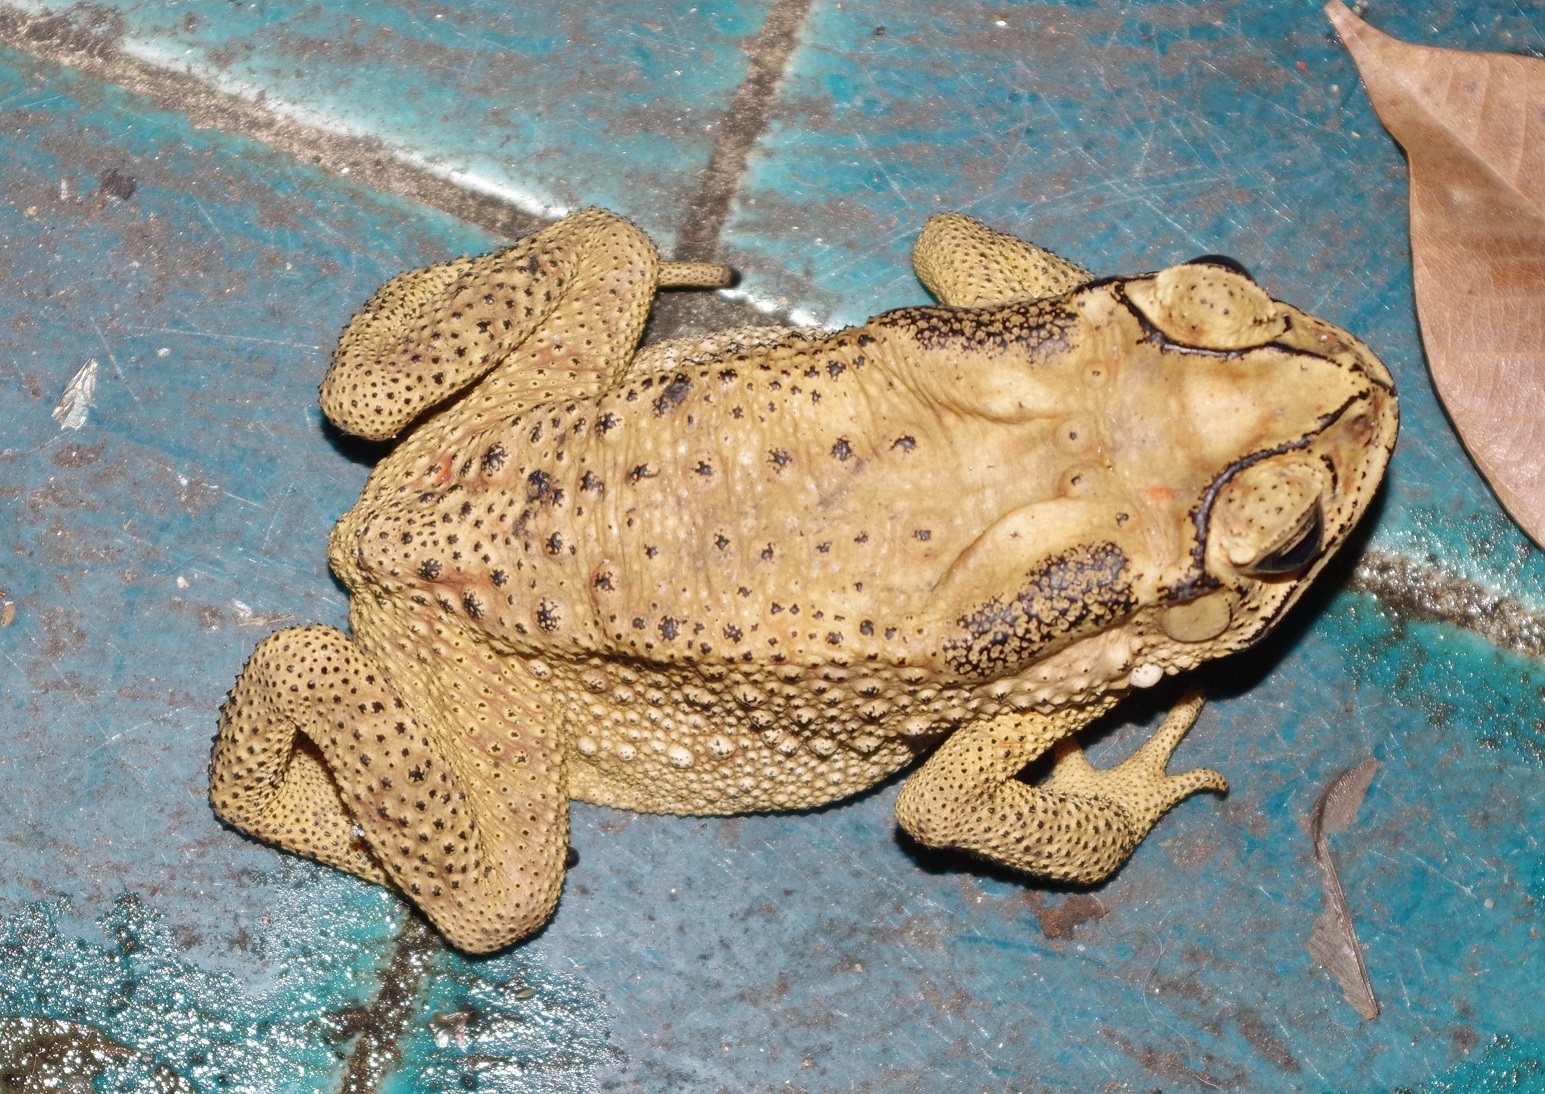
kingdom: Animalia
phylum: Chordata
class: Amphibia
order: Anura
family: Bufonidae
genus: Duttaphrynus
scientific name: Duttaphrynus melanostictus
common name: Common sunda toad
